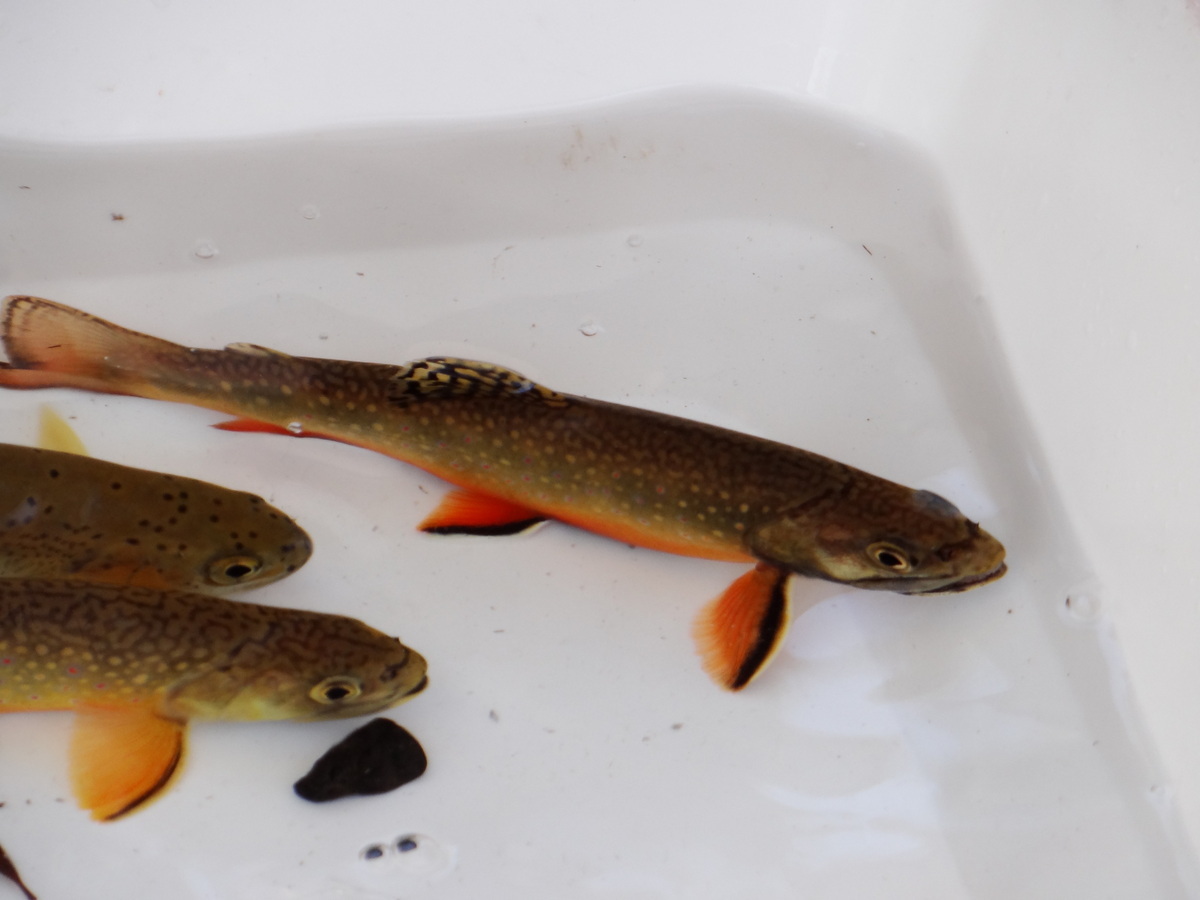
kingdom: Animalia
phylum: Chordata
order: Salmoniformes
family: Salmonidae
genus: Salvelinus
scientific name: Salvelinus fontinalis
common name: Brook trout
